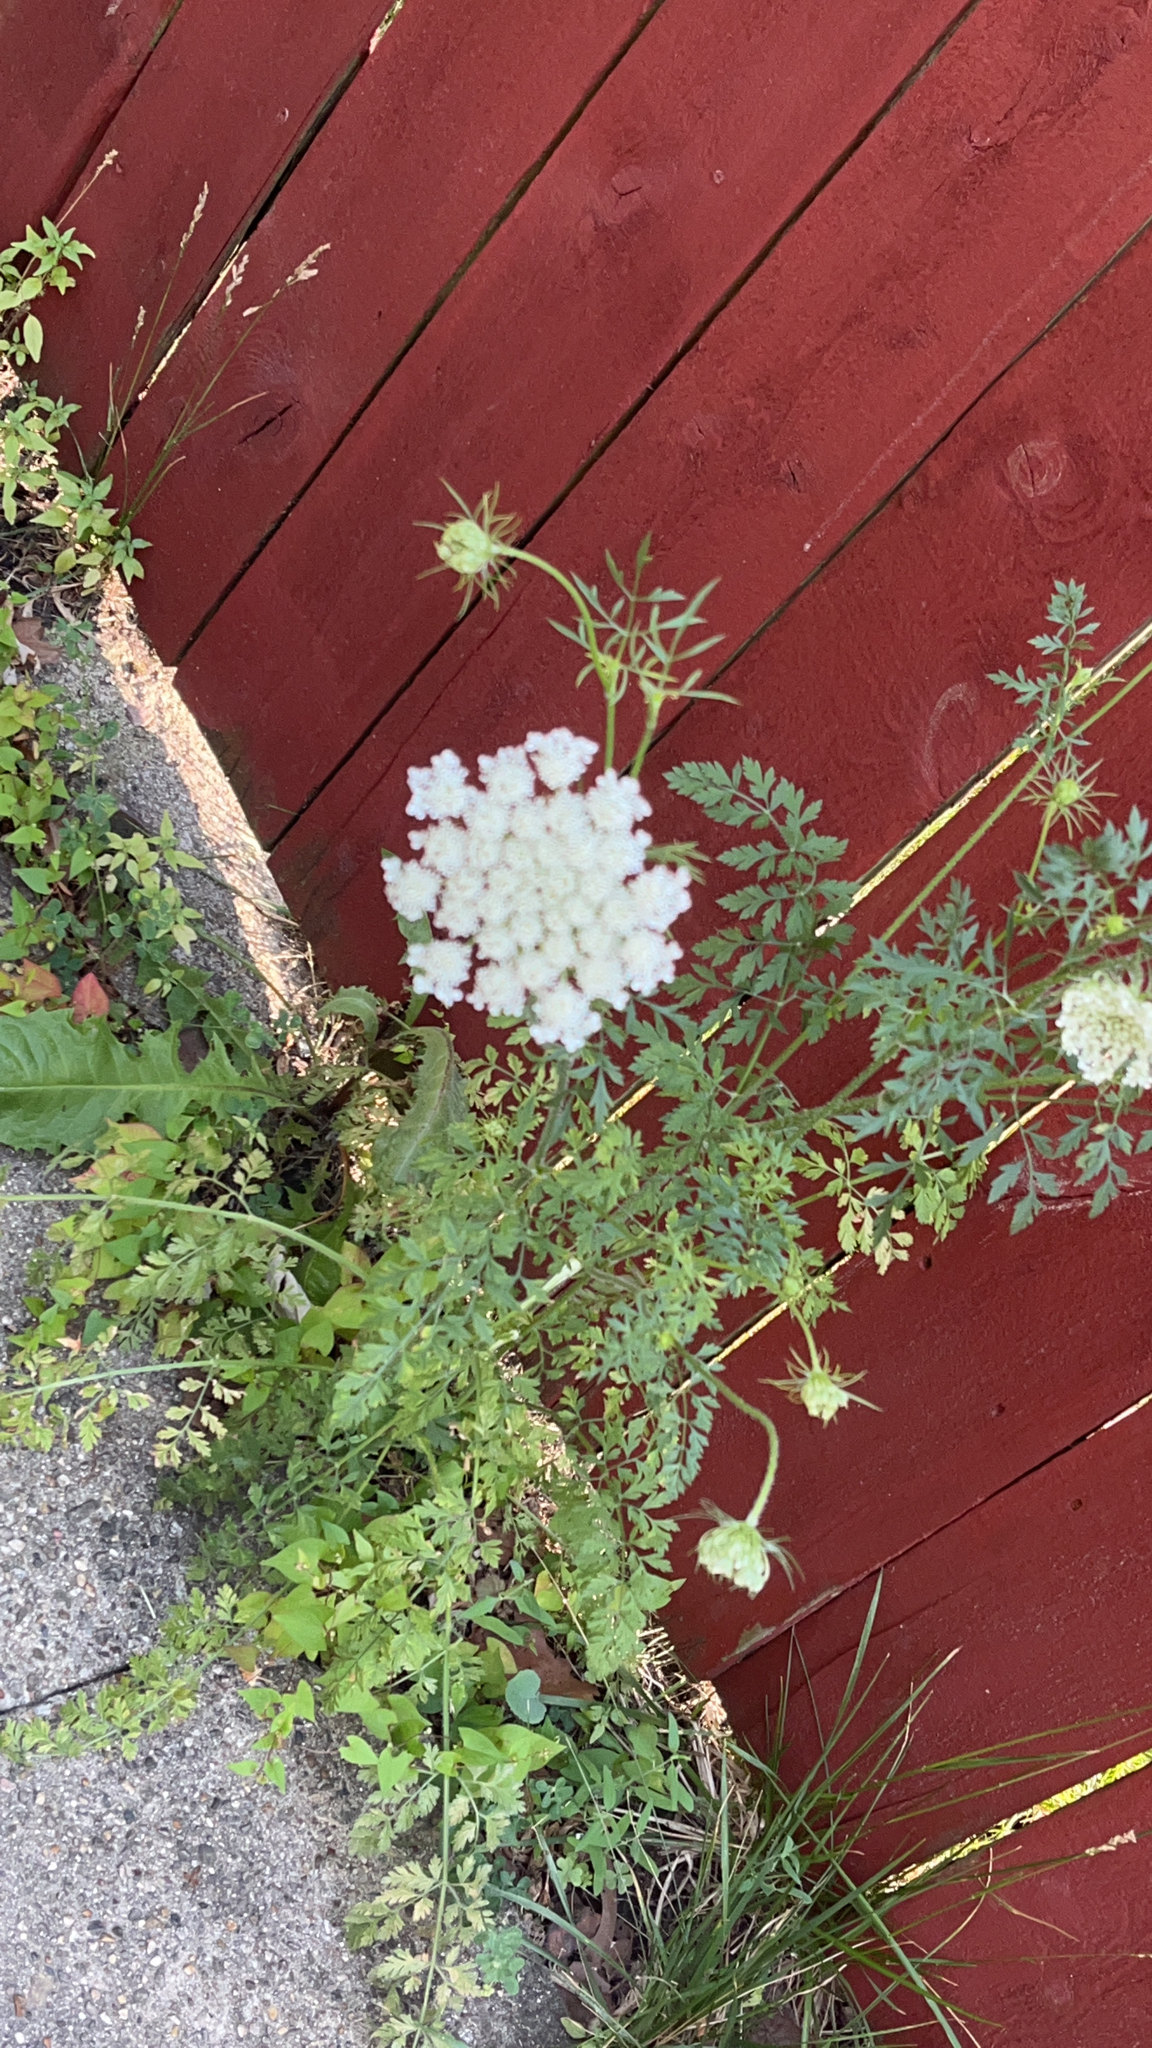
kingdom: Plantae
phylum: Tracheophyta
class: Magnoliopsida
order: Apiales
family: Apiaceae
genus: Daucus
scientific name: Daucus carota
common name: Wild carrot
